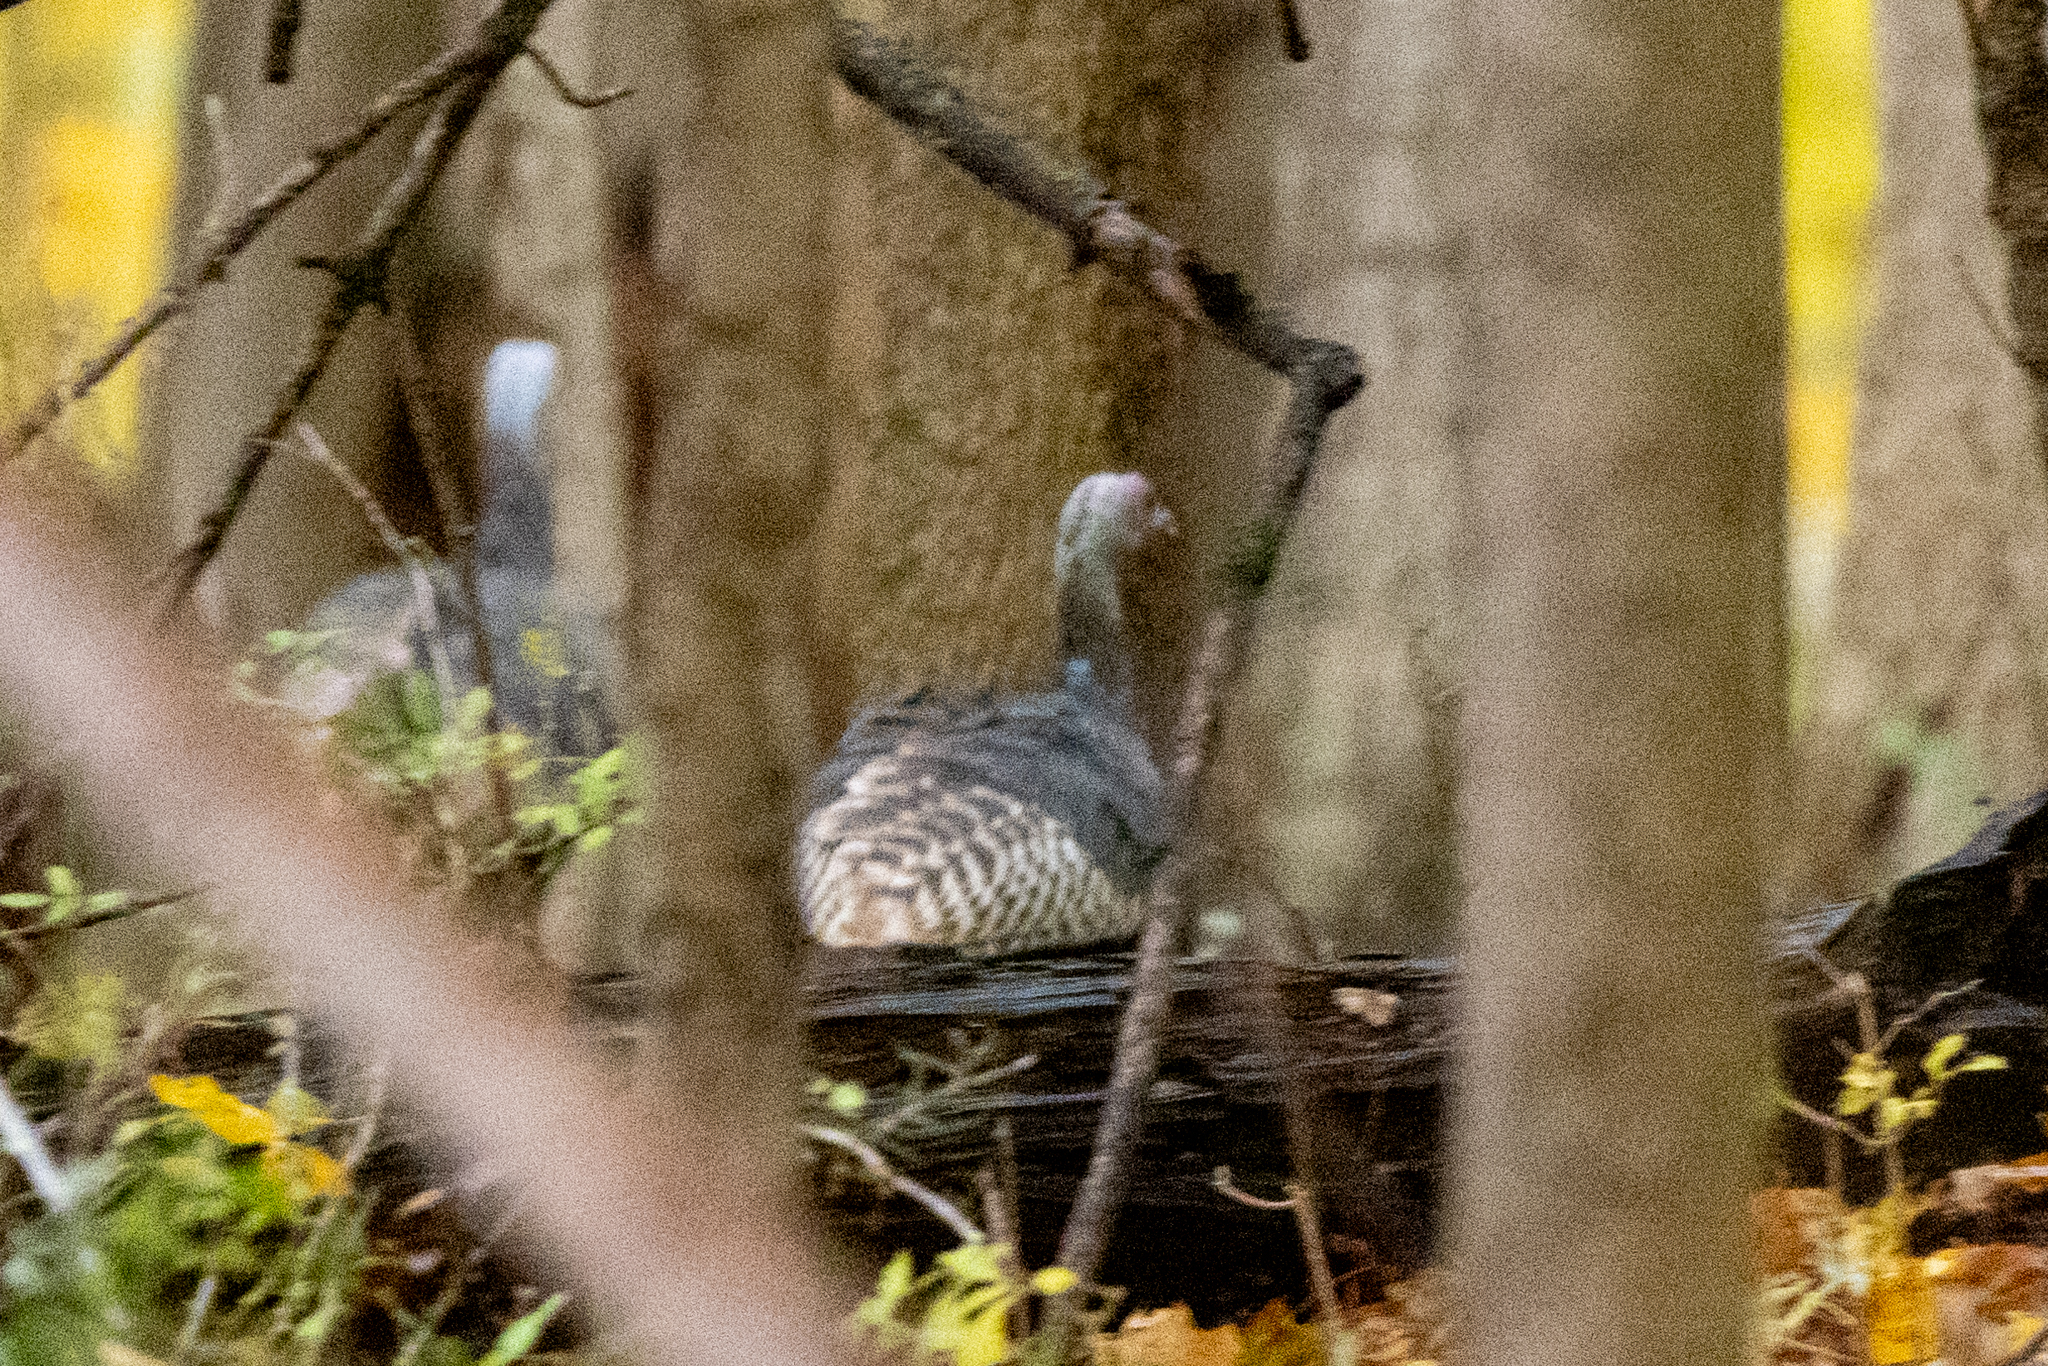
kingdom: Animalia
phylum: Chordata
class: Aves
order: Galliformes
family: Phasianidae
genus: Meleagris
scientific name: Meleagris gallopavo
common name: Wild turkey
